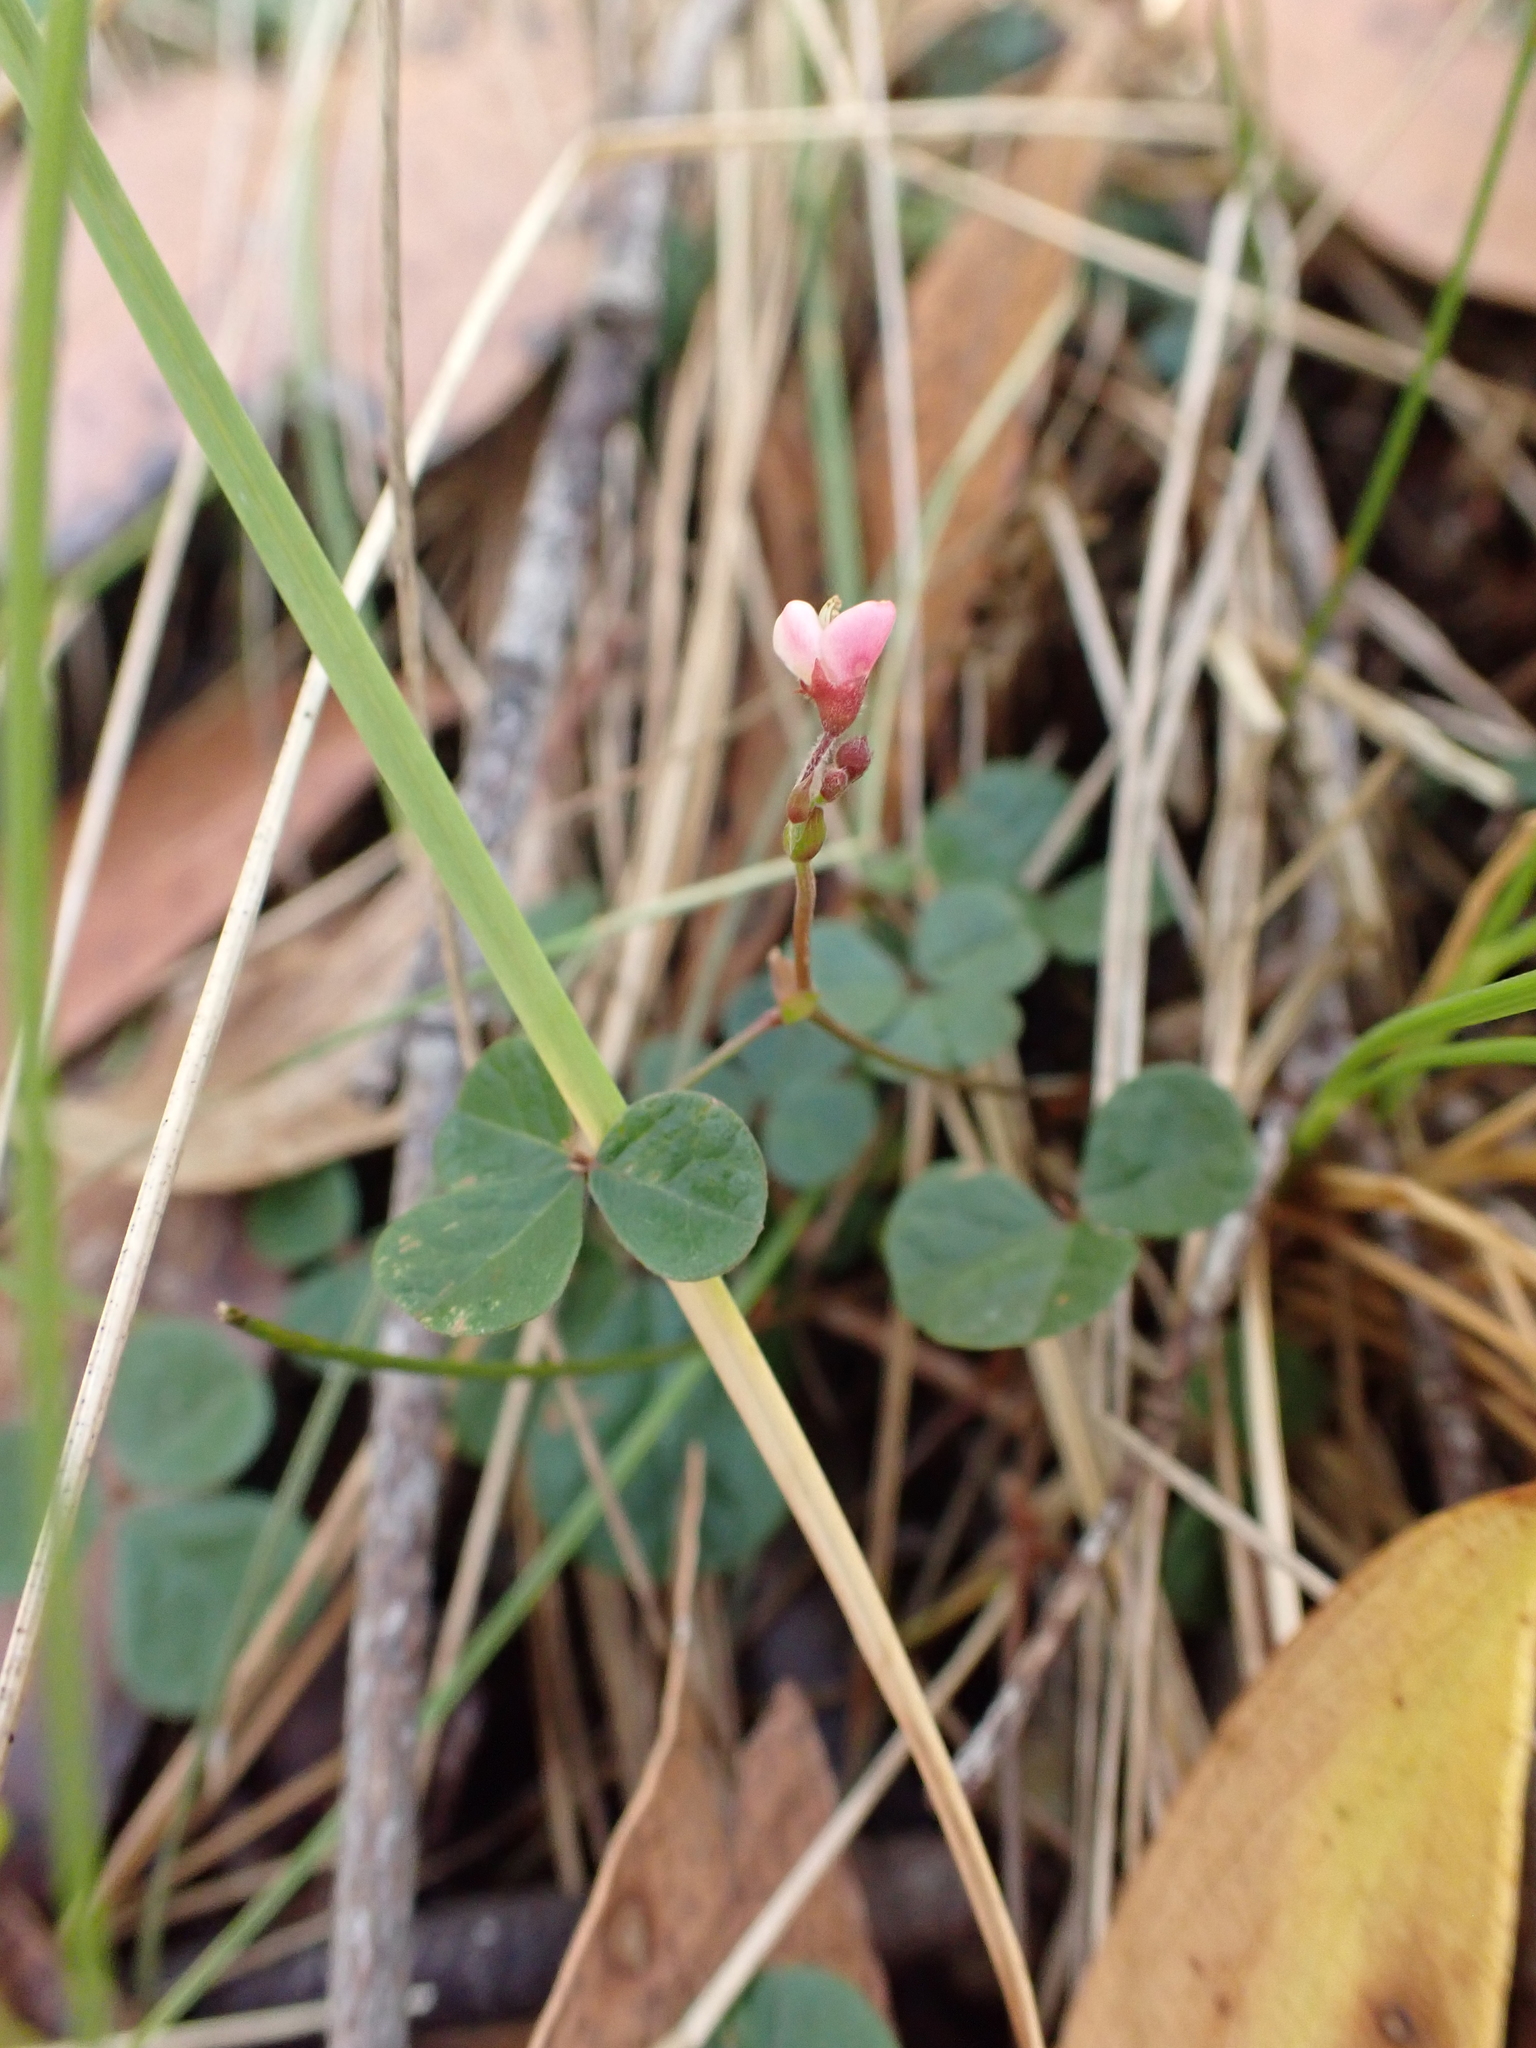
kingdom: Plantae
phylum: Tracheophyta
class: Magnoliopsida
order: Fabales
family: Fabaceae
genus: Pullenia
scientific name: Pullenia gunnii
